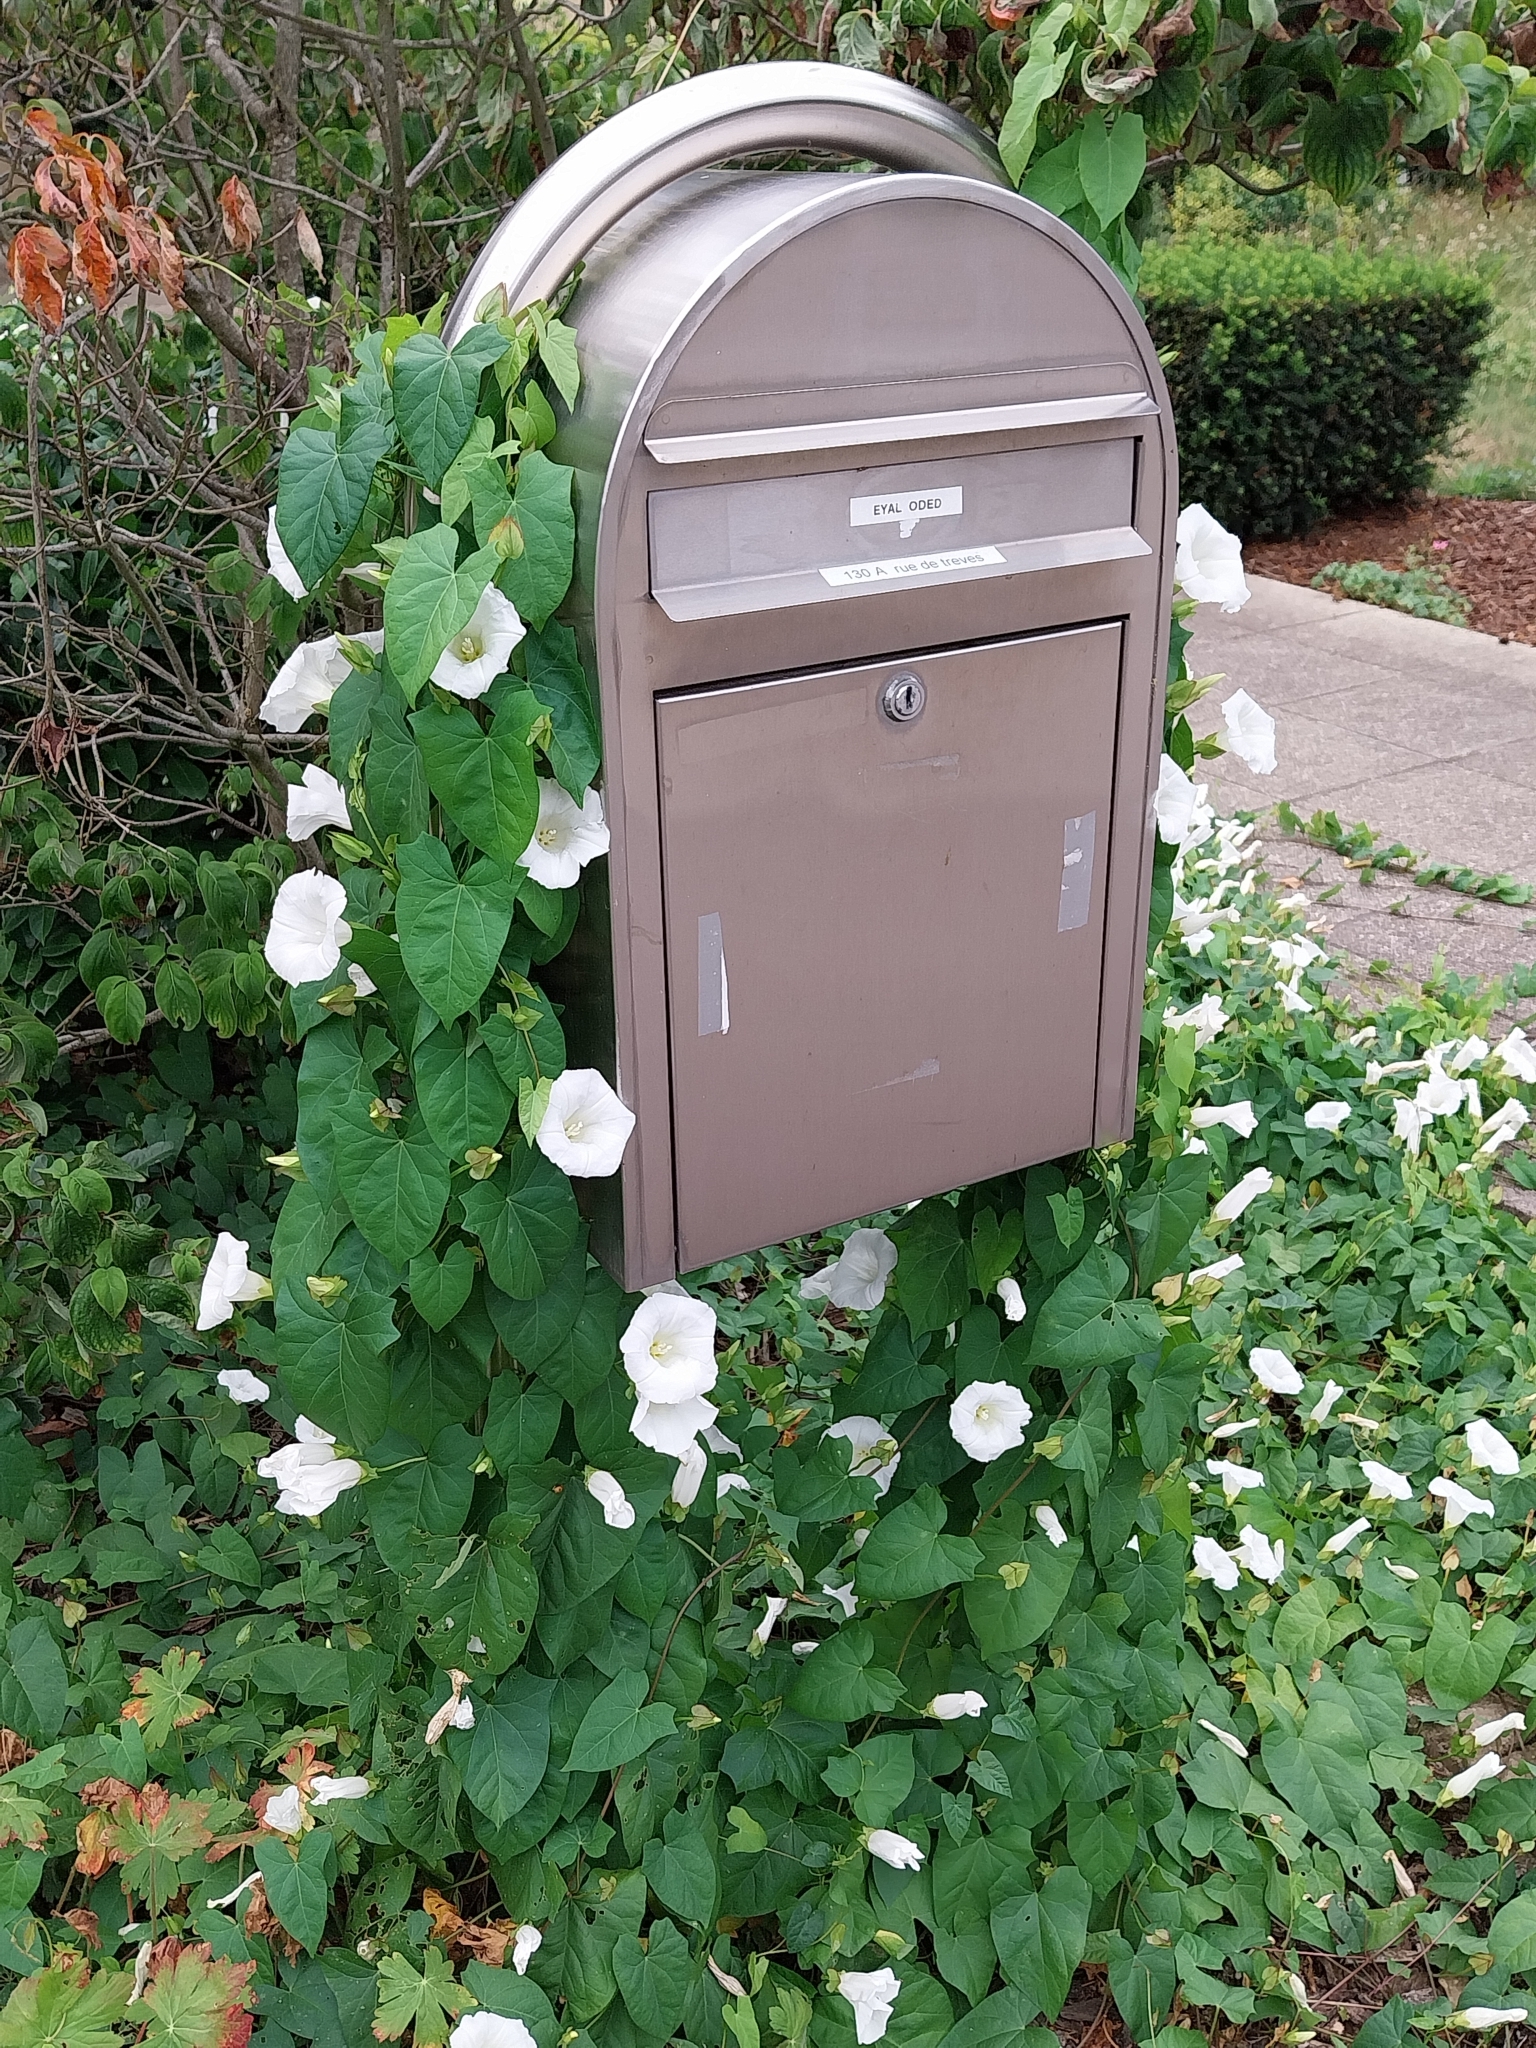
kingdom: Plantae
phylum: Tracheophyta
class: Magnoliopsida
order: Solanales
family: Convolvulaceae
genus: Calystegia
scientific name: Calystegia sepium
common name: Hedge bindweed
